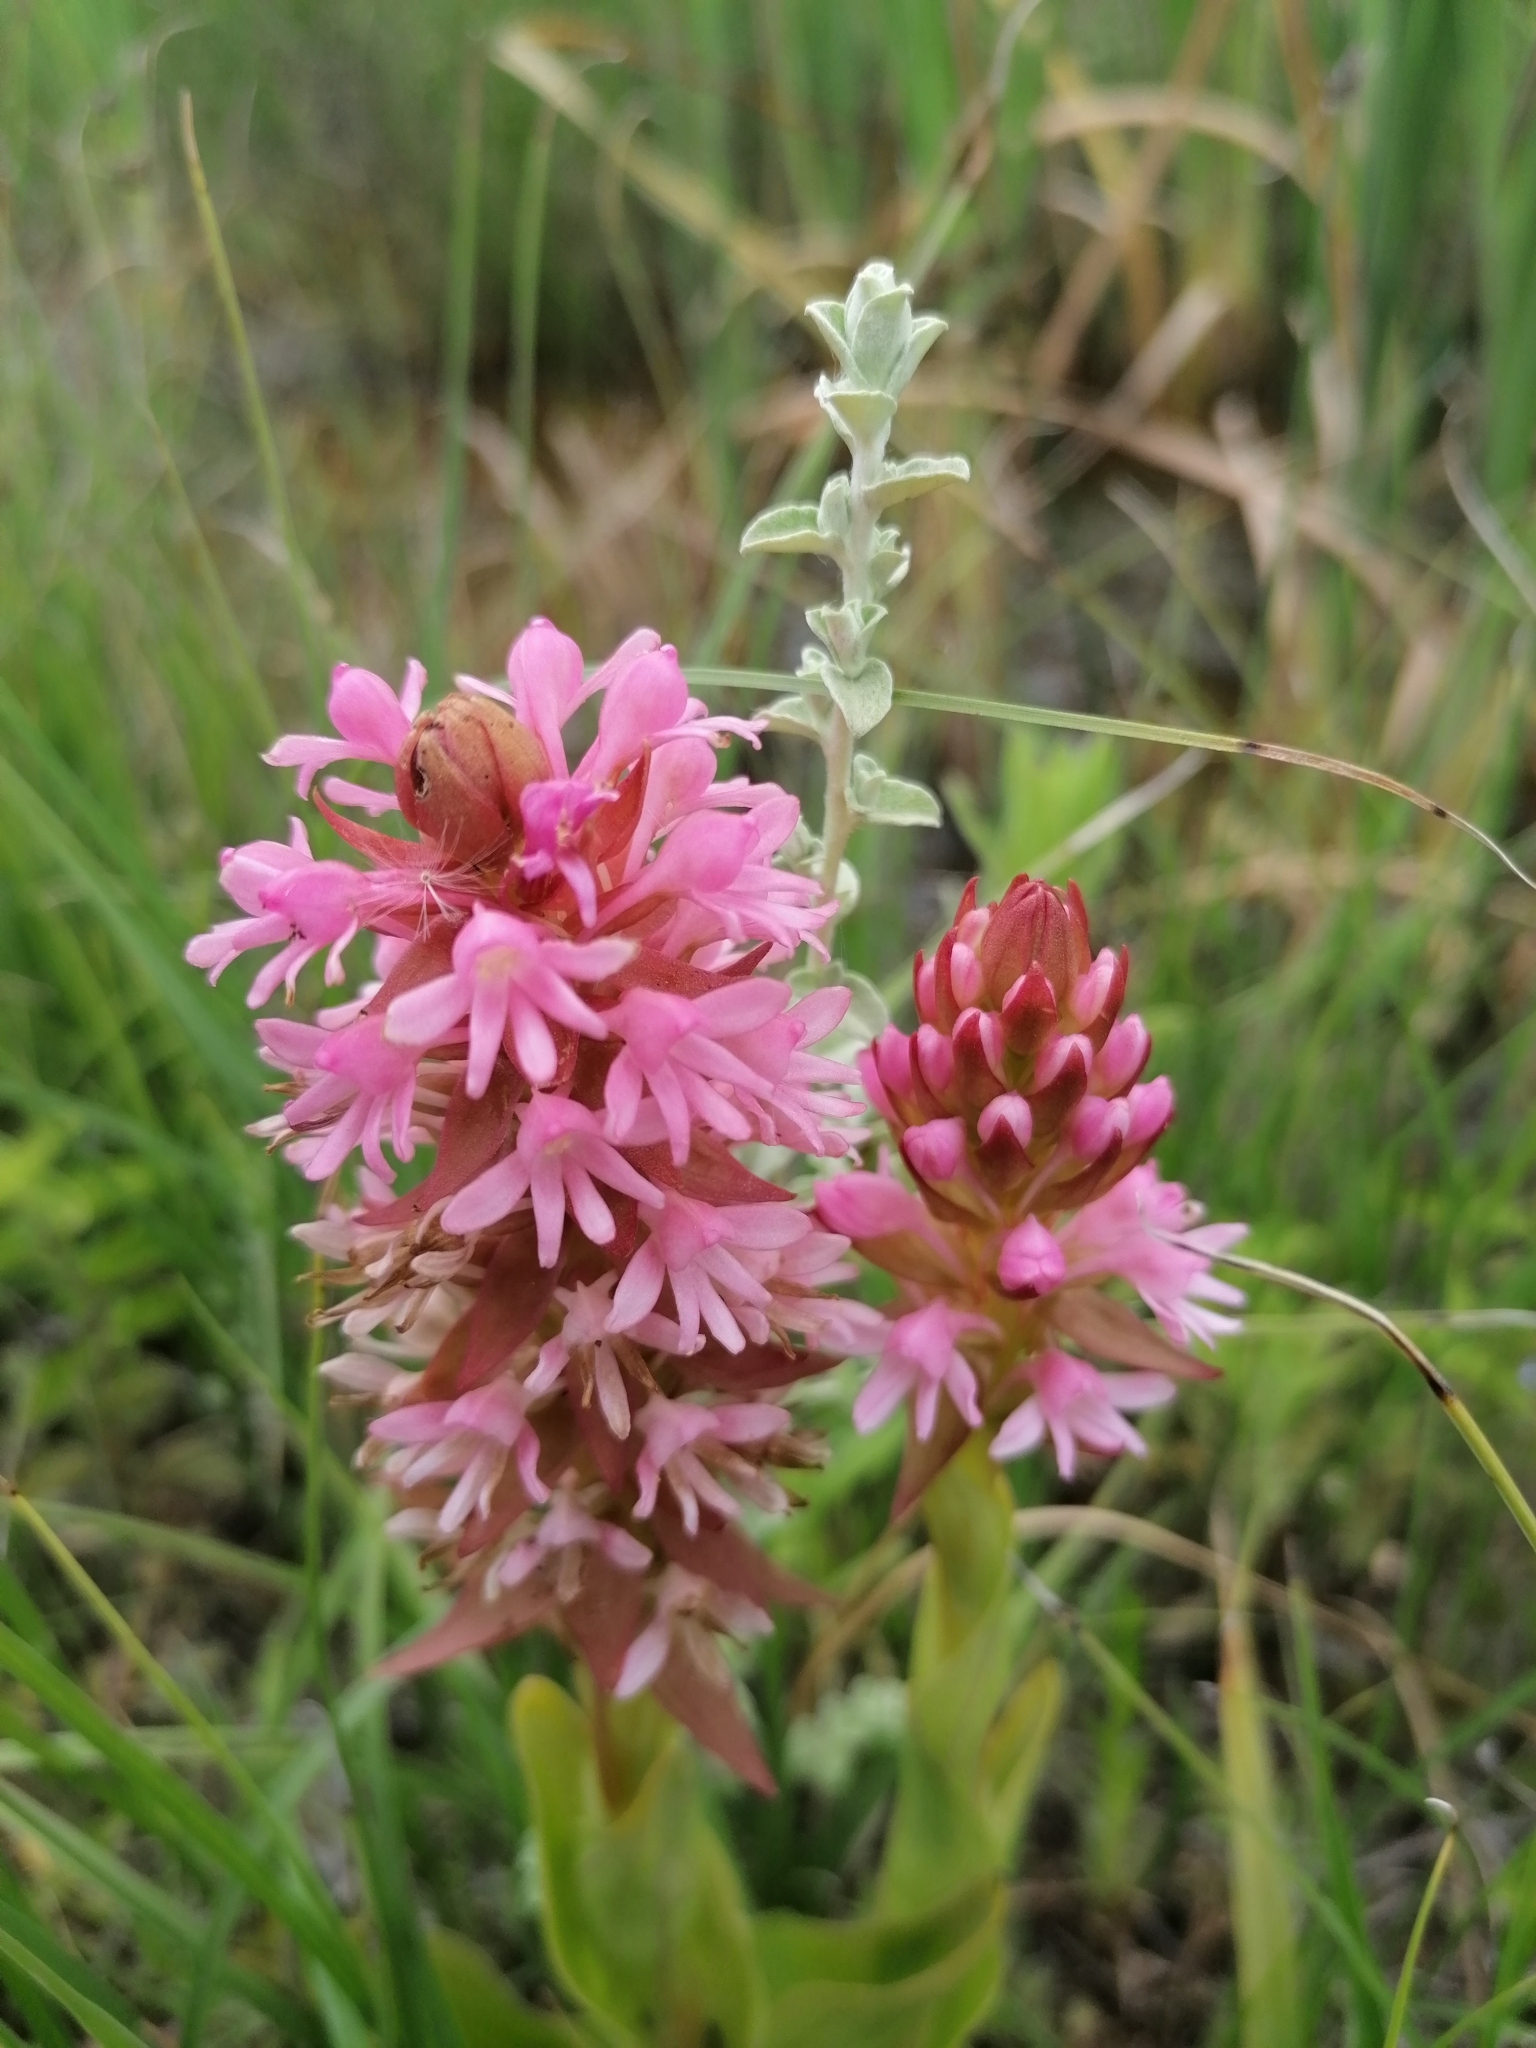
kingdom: Plantae
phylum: Tracheophyta
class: Liliopsida
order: Asparagales
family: Orchidaceae
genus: Satyrium
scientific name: Satyrium hallackii
